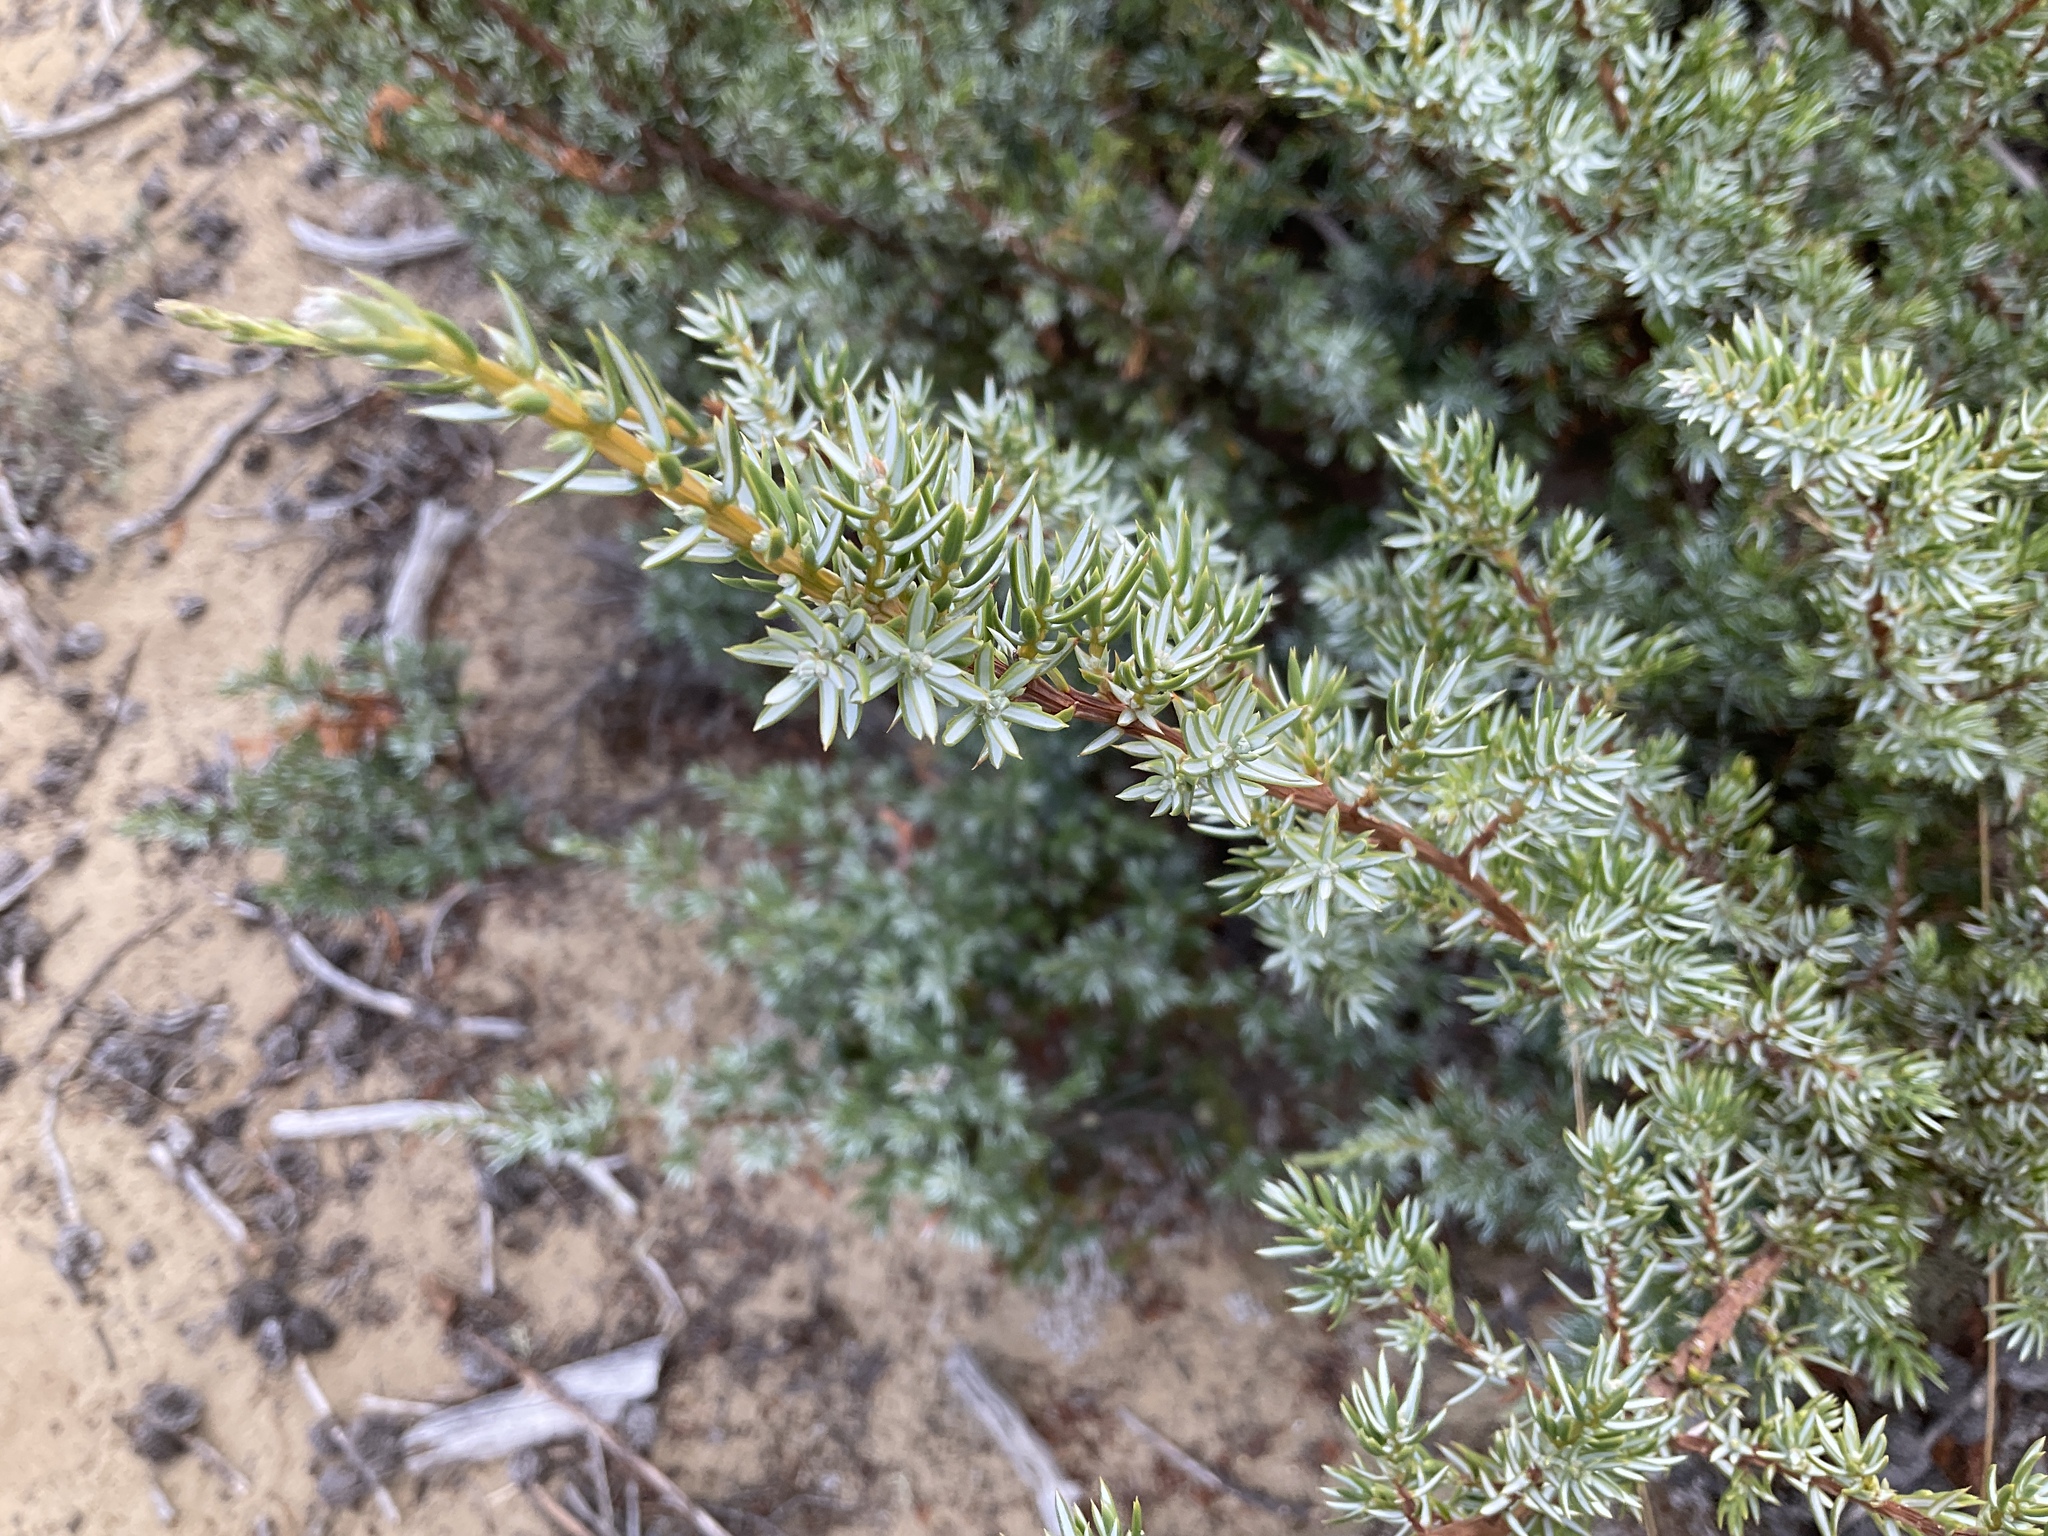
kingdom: Plantae
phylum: Tracheophyta
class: Pinopsida
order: Pinales
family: Cupressaceae
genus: Juniperus
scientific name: Juniperus communis
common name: Common juniper
